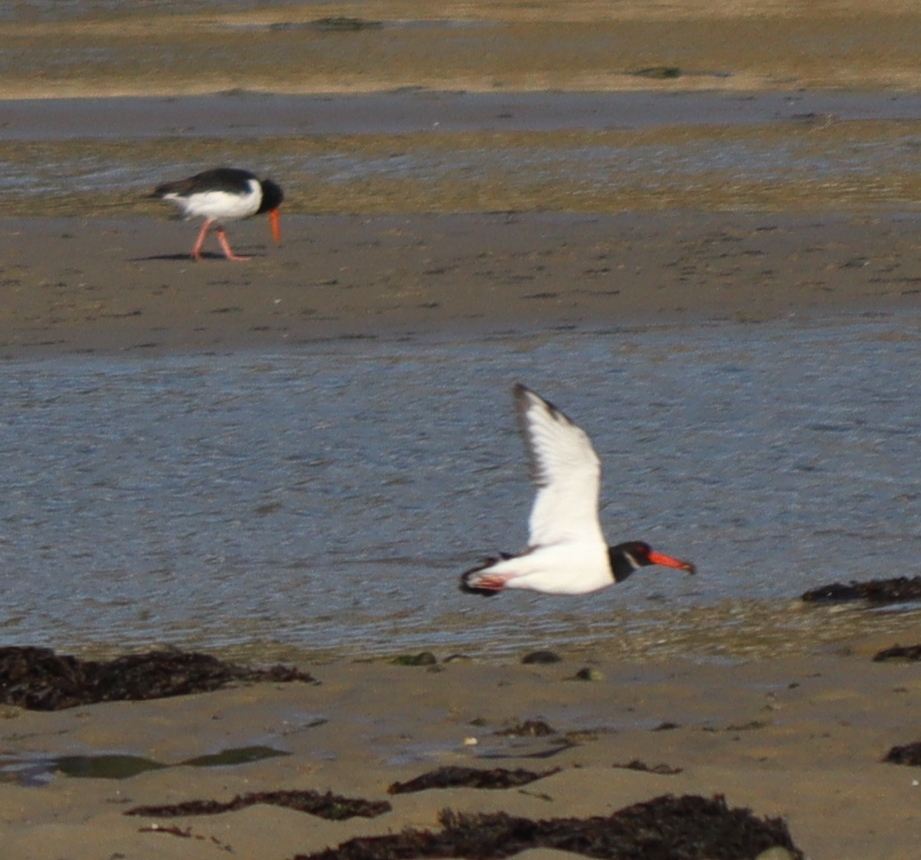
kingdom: Animalia
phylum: Chordata
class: Aves
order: Charadriiformes
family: Haematopodidae
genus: Haematopus
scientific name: Haematopus ostralegus
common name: Eurasian oystercatcher
